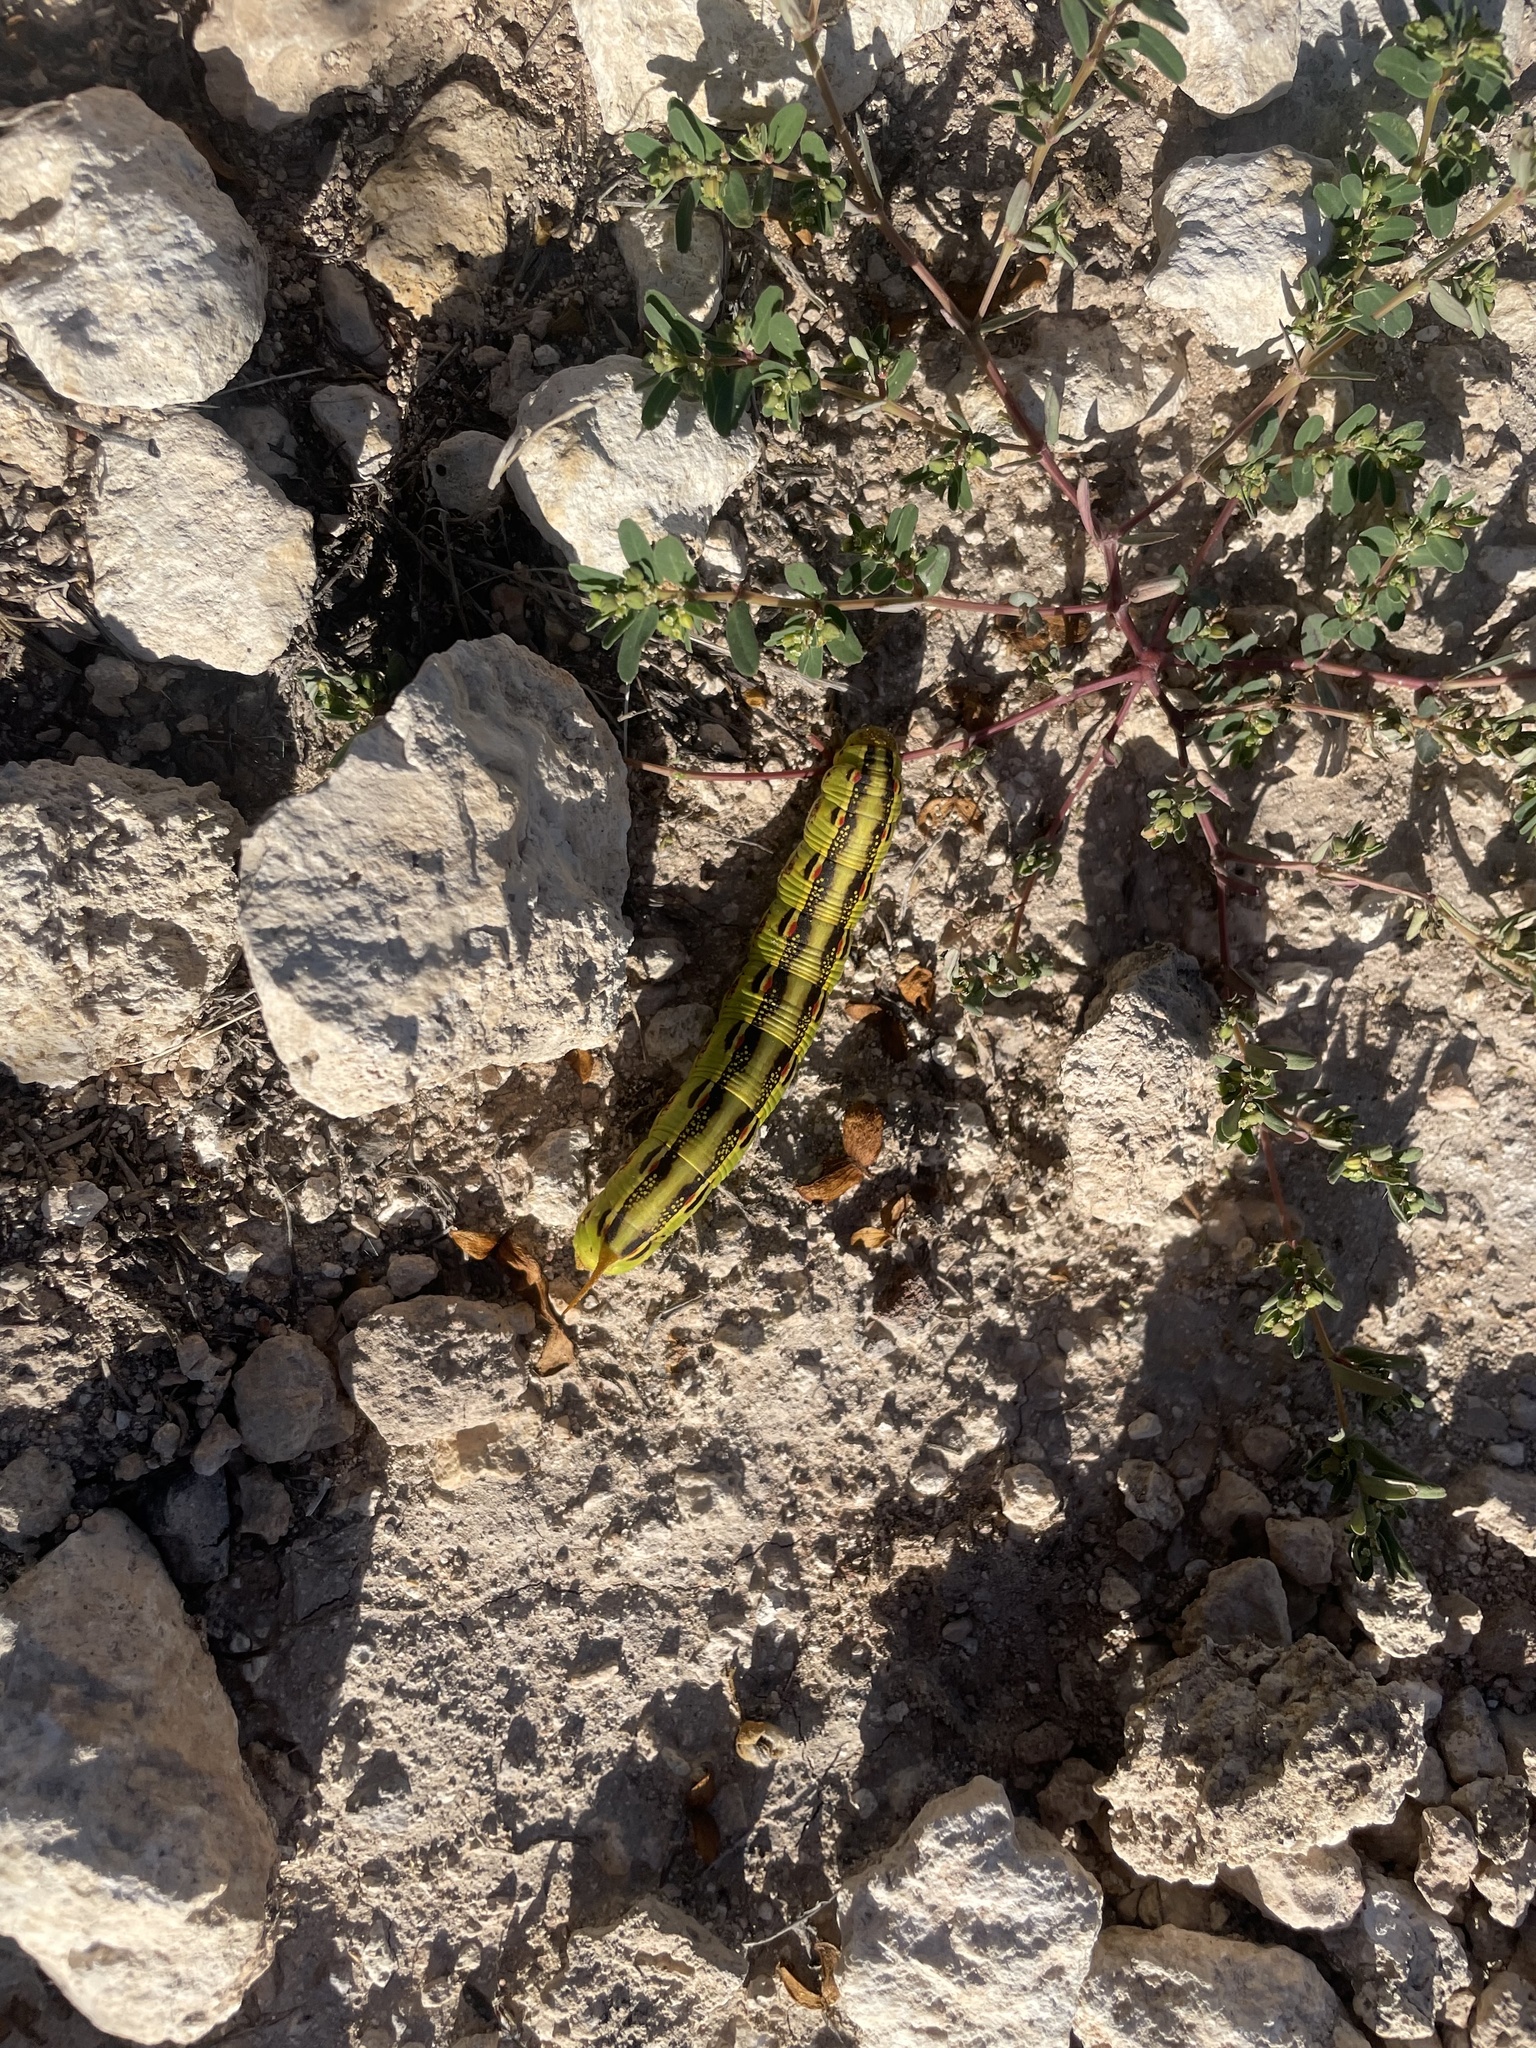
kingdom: Animalia
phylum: Arthropoda
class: Insecta
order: Lepidoptera
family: Sphingidae
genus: Hyles
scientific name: Hyles lineata
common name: White-lined sphinx
